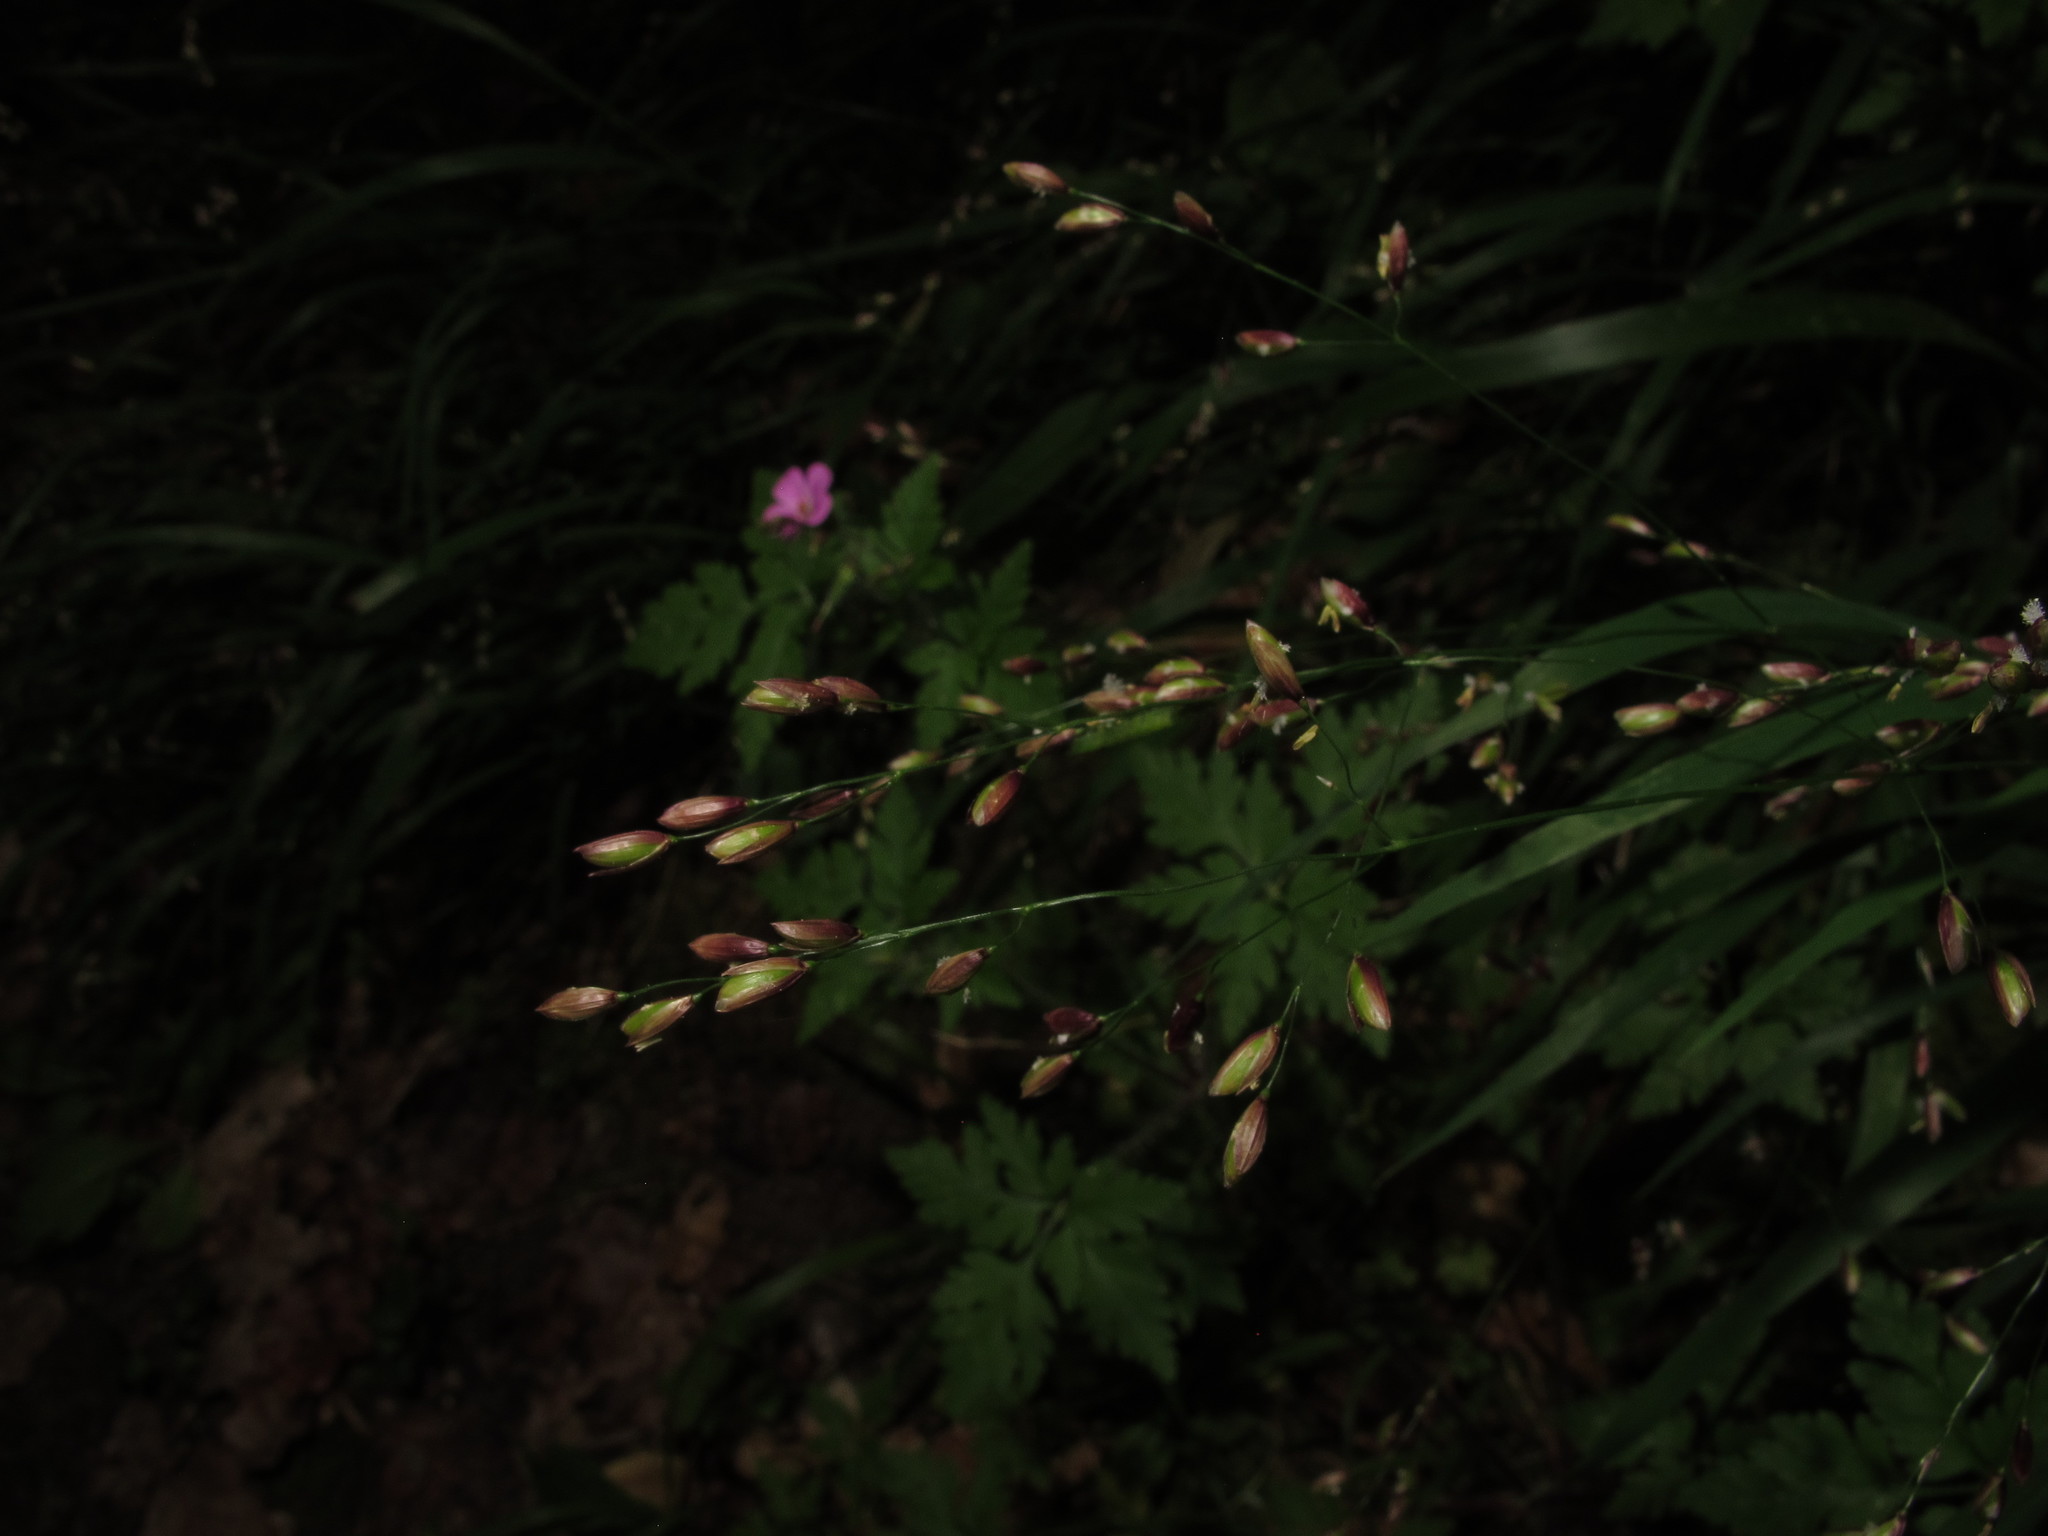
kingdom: Plantae
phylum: Tracheophyta
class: Liliopsida
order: Poales
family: Poaceae
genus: Melica
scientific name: Melica uniflora
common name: Wood melick
